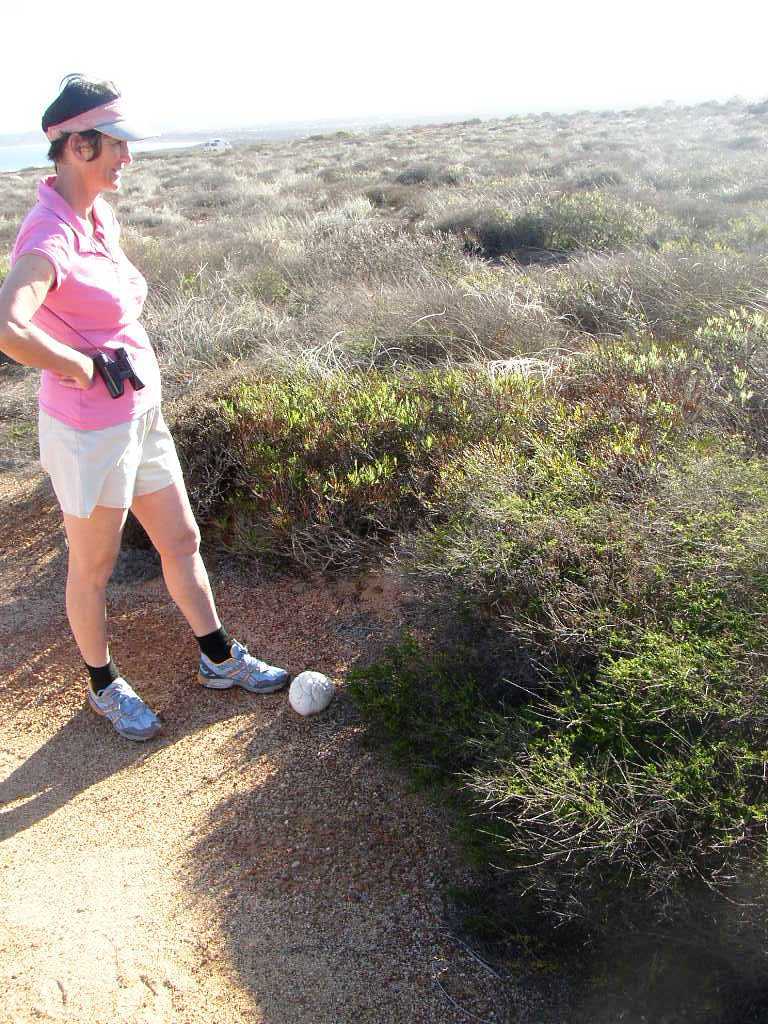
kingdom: Plantae
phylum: Tracheophyta
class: Magnoliopsida
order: Proteales
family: Proteaceae
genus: Grevillea
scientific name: Grevillea pinaster
